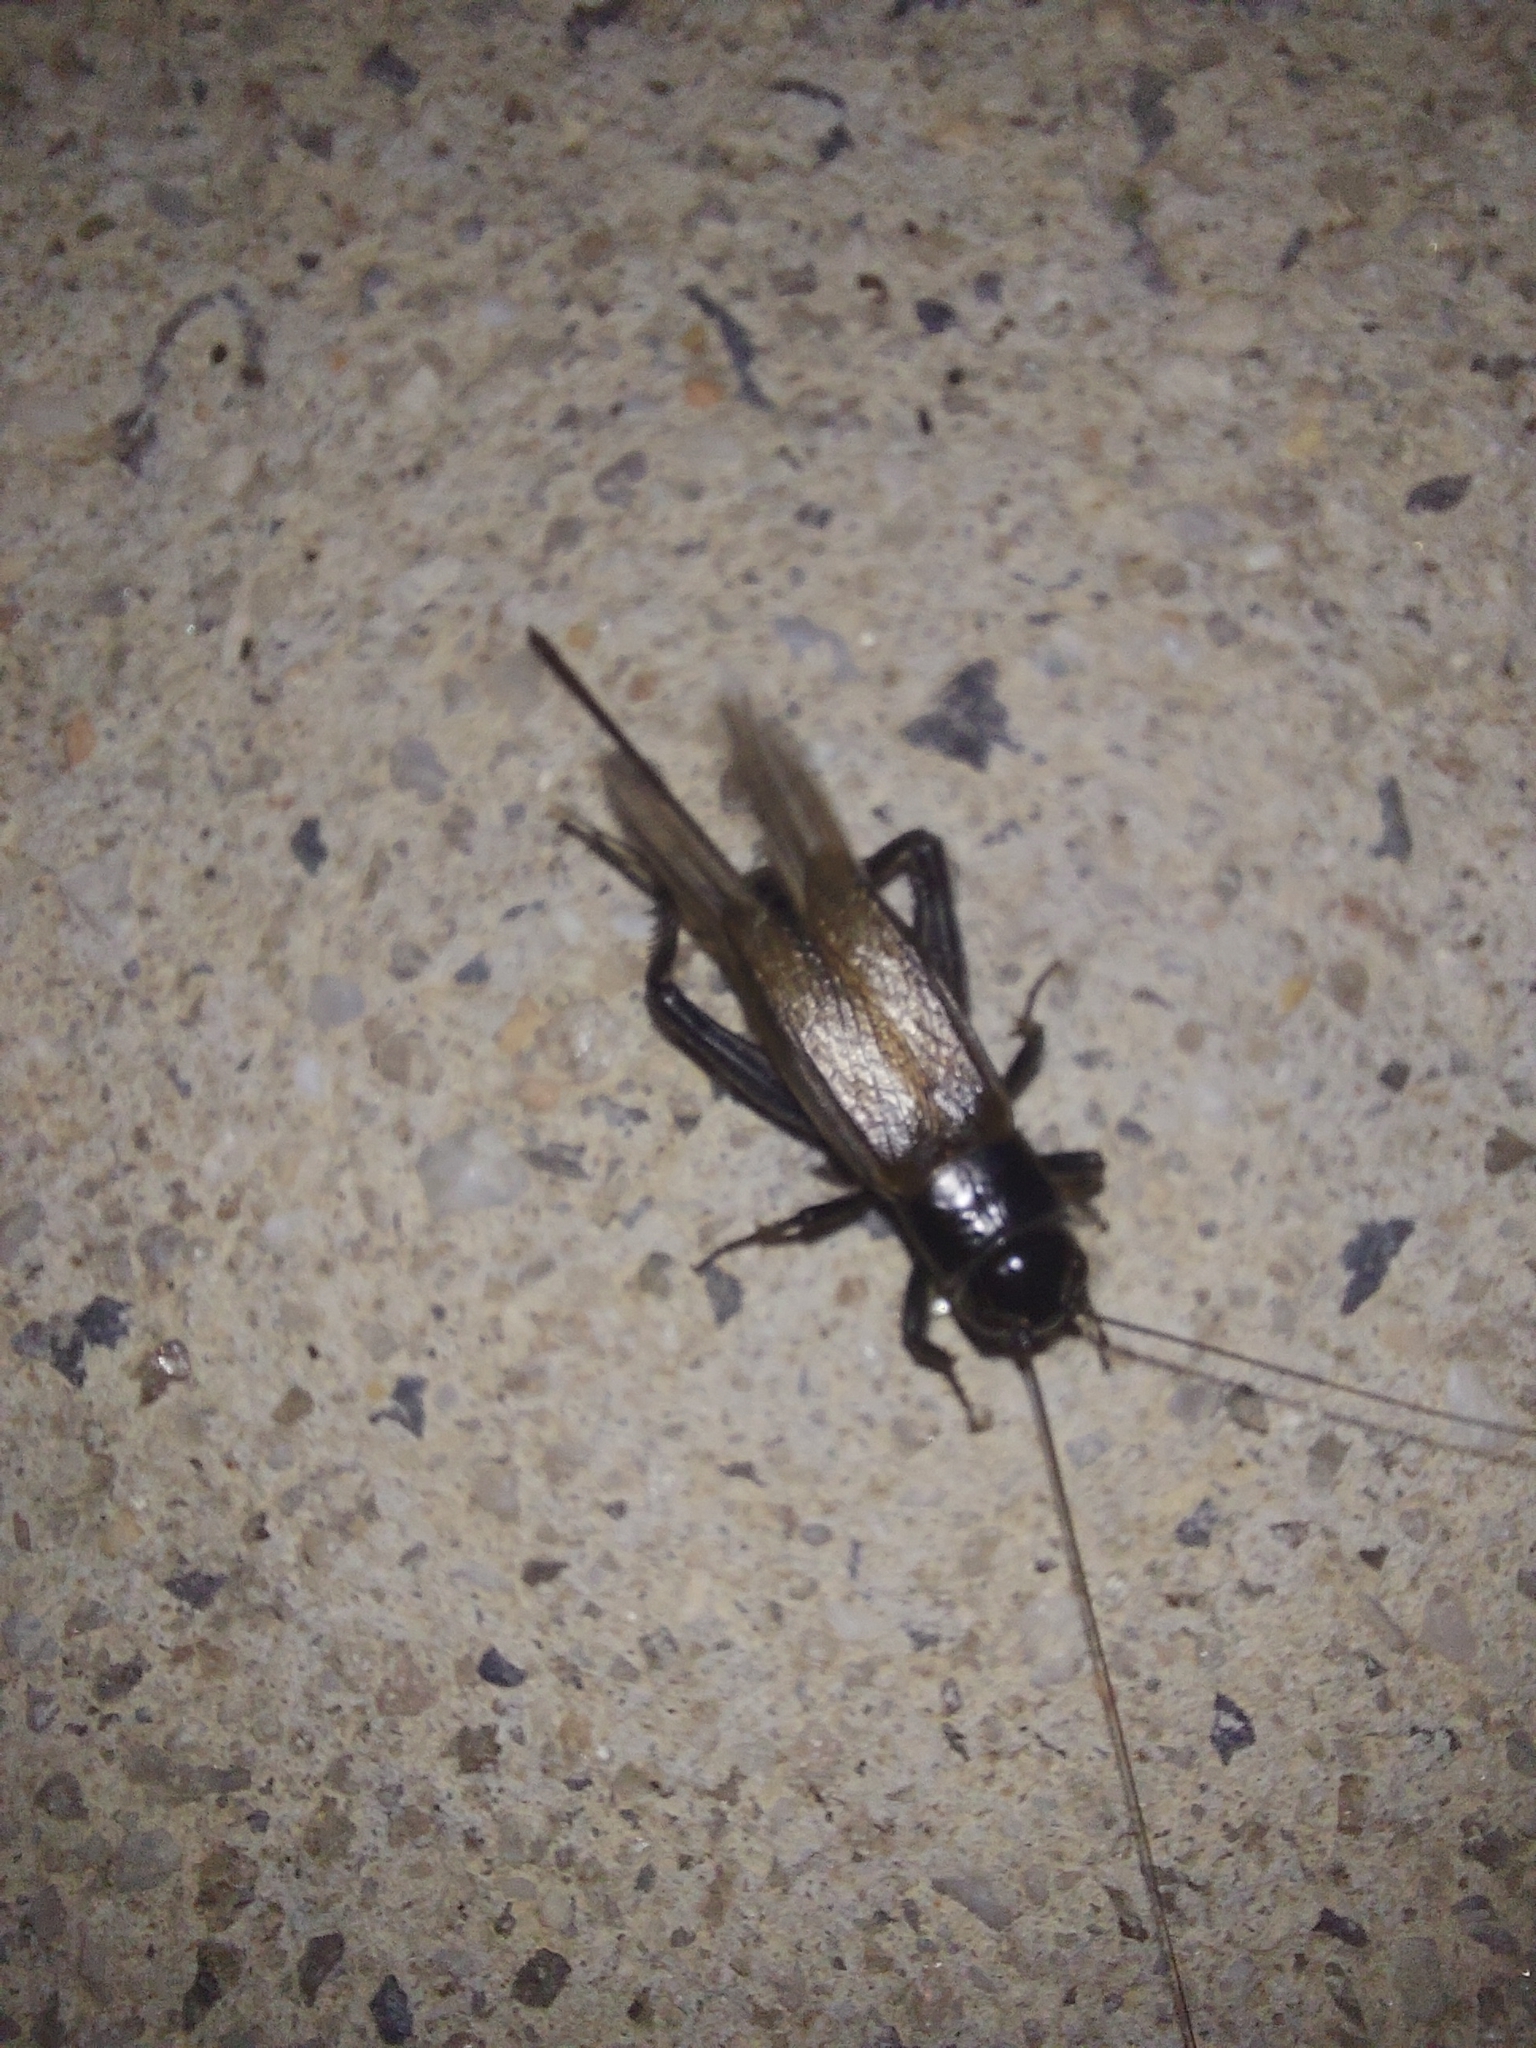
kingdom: Animalia
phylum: Arthropoda
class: Insecta
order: Orthoptera
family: Gryllidae
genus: Teleogryllus
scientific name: Teleogryllus commodus
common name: Black field cricket
